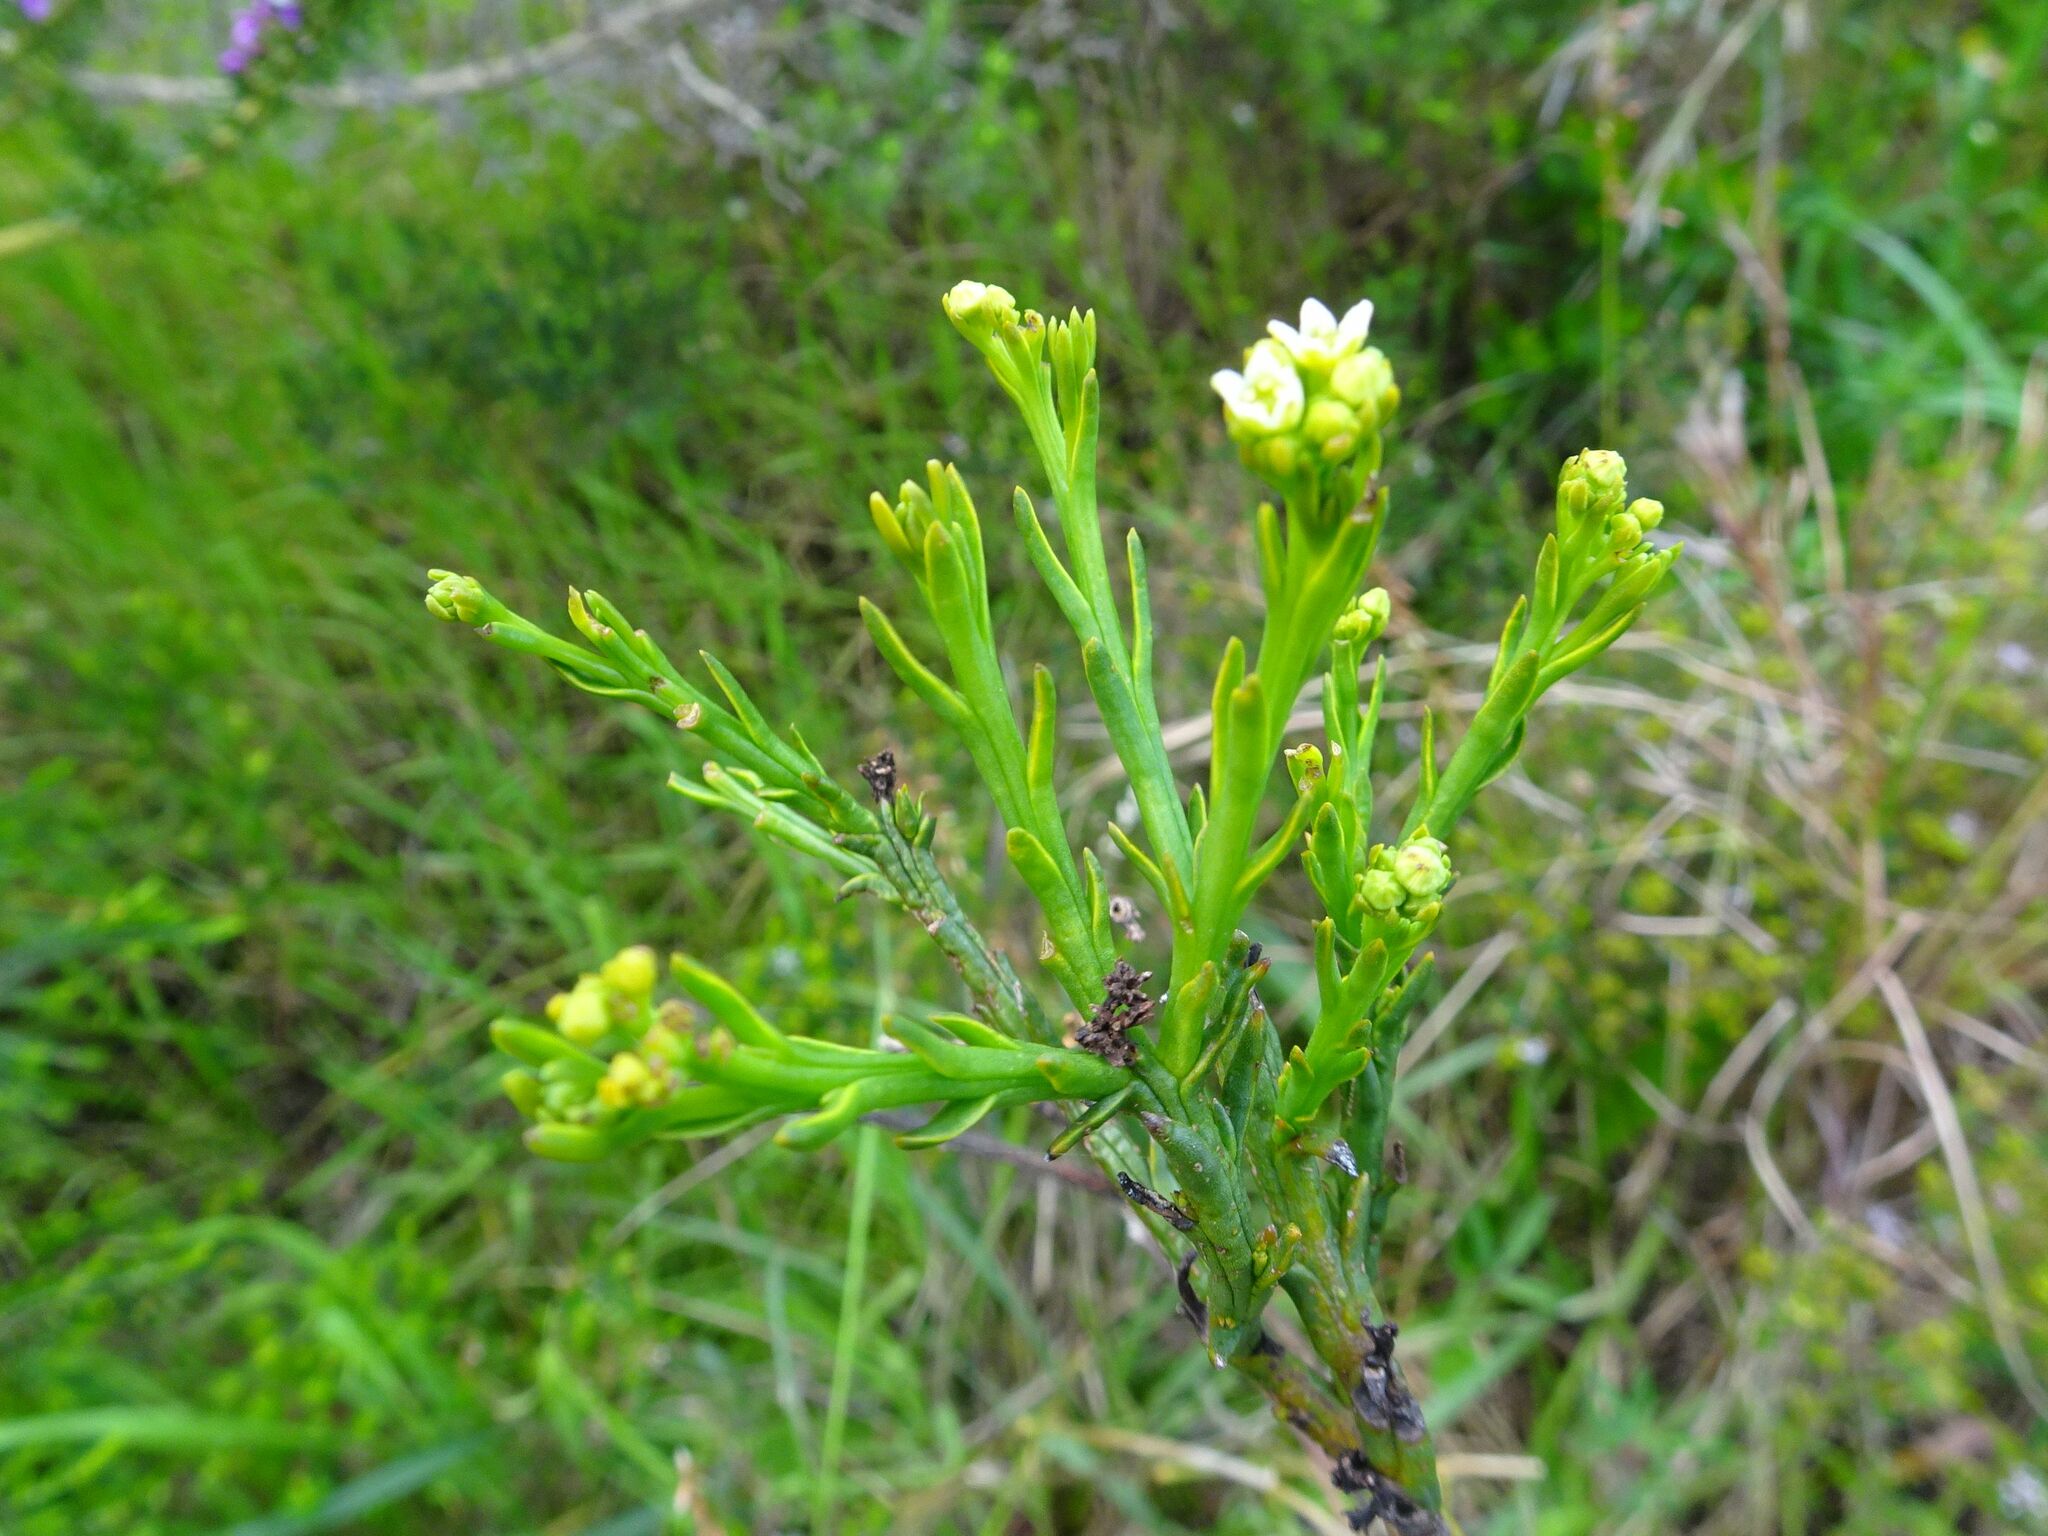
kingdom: Plantae
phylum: Tracheophyta
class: Magnoliopsida
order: Santalales
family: Thesiaceae
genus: Thesium
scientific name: Thesium strictum
